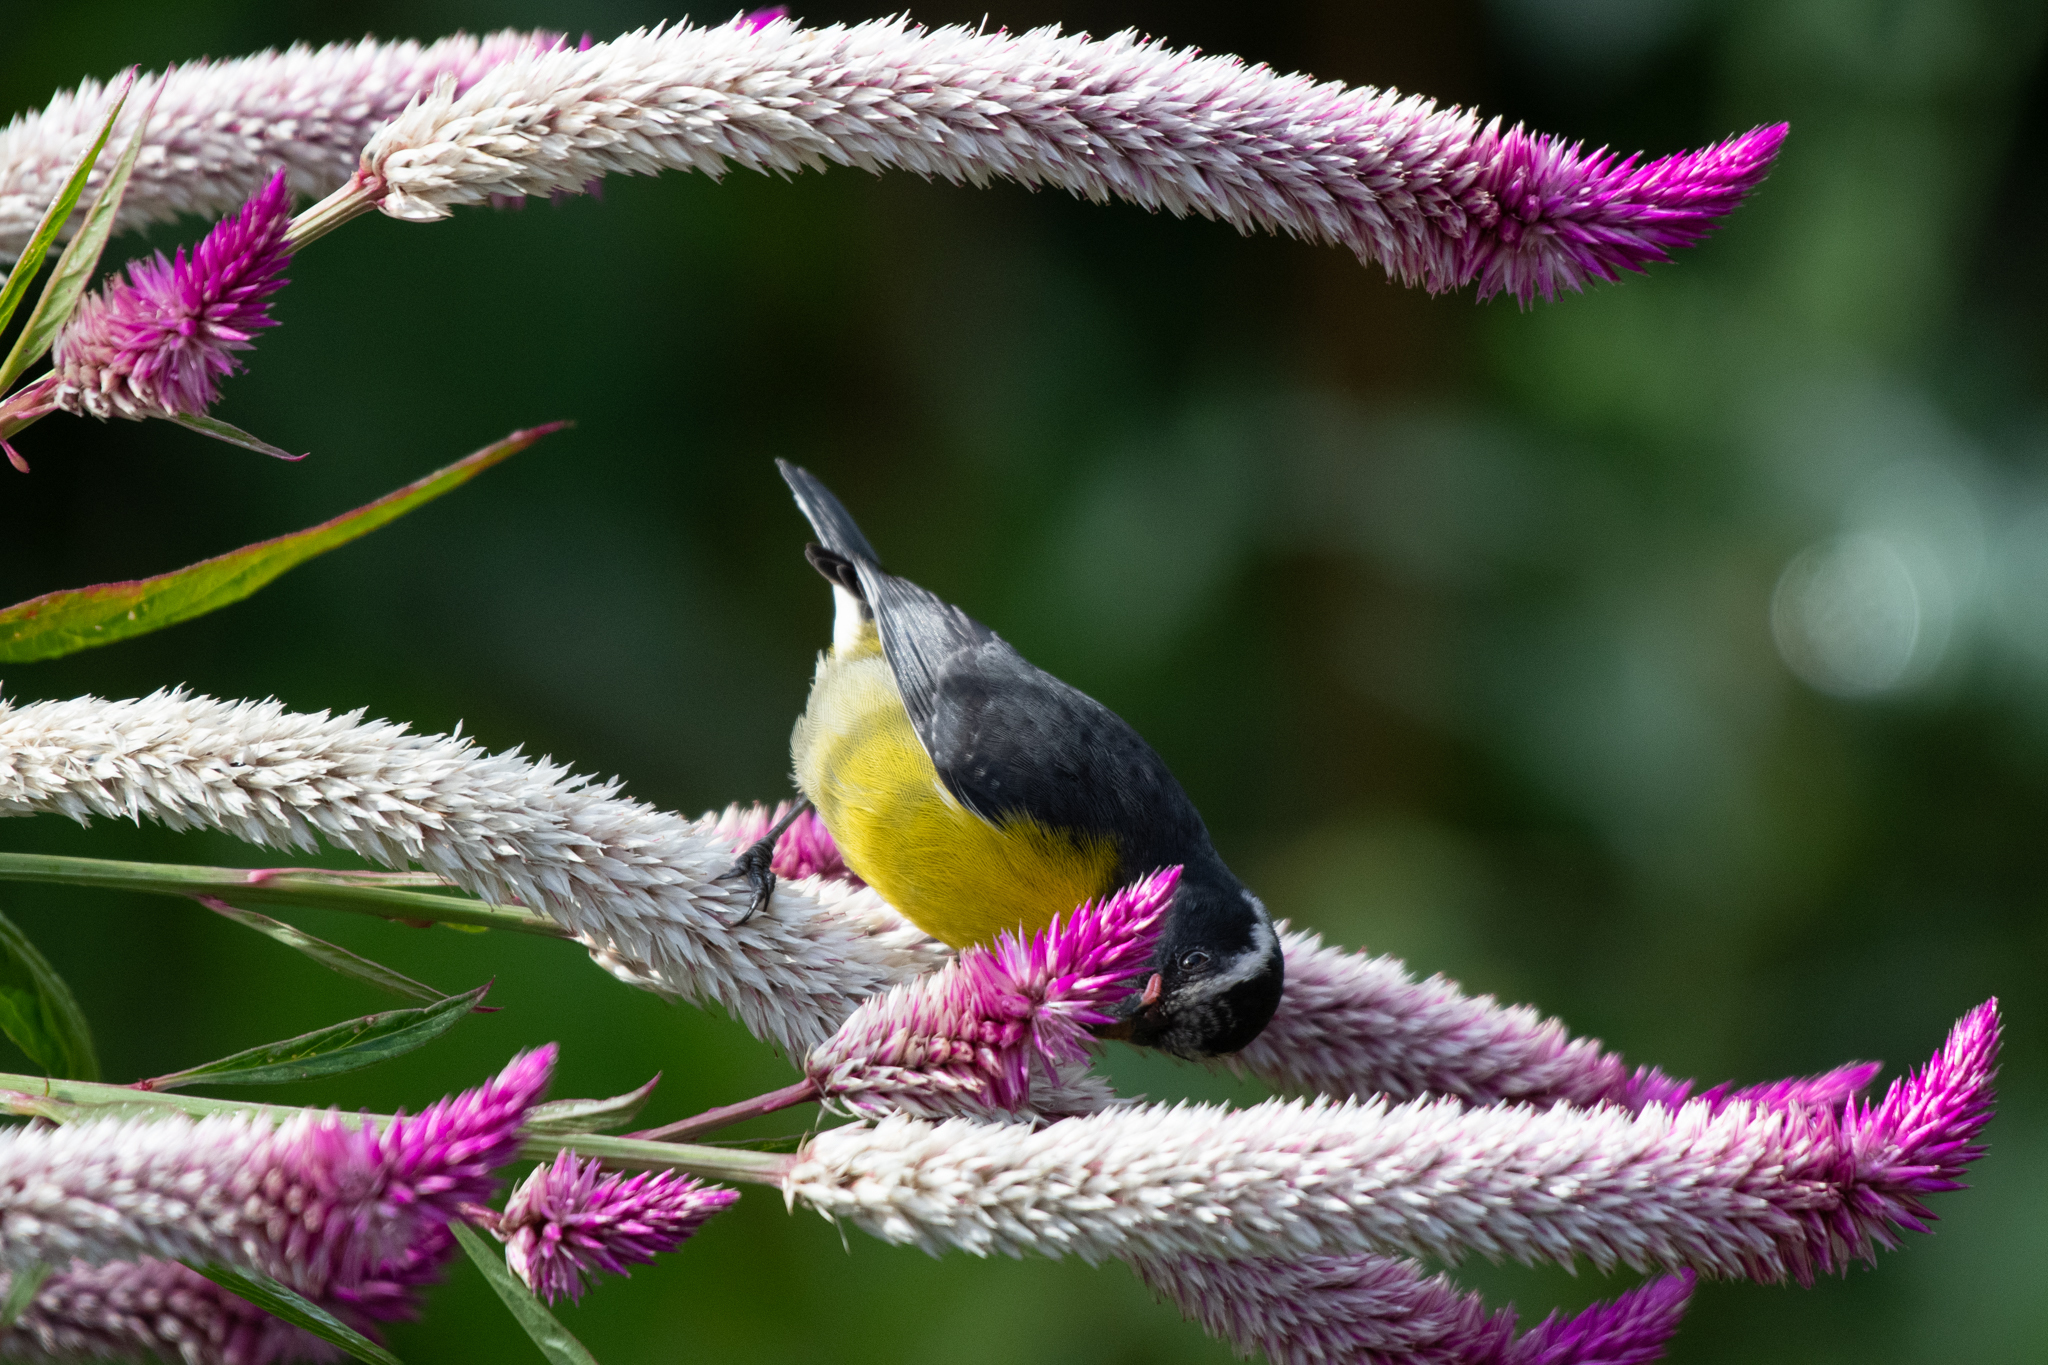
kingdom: Animalia
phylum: Chordata
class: Aves
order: Passeriformes
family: Thraupidae
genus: Coereba
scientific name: Coereba flaveola
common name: Bananaquit
